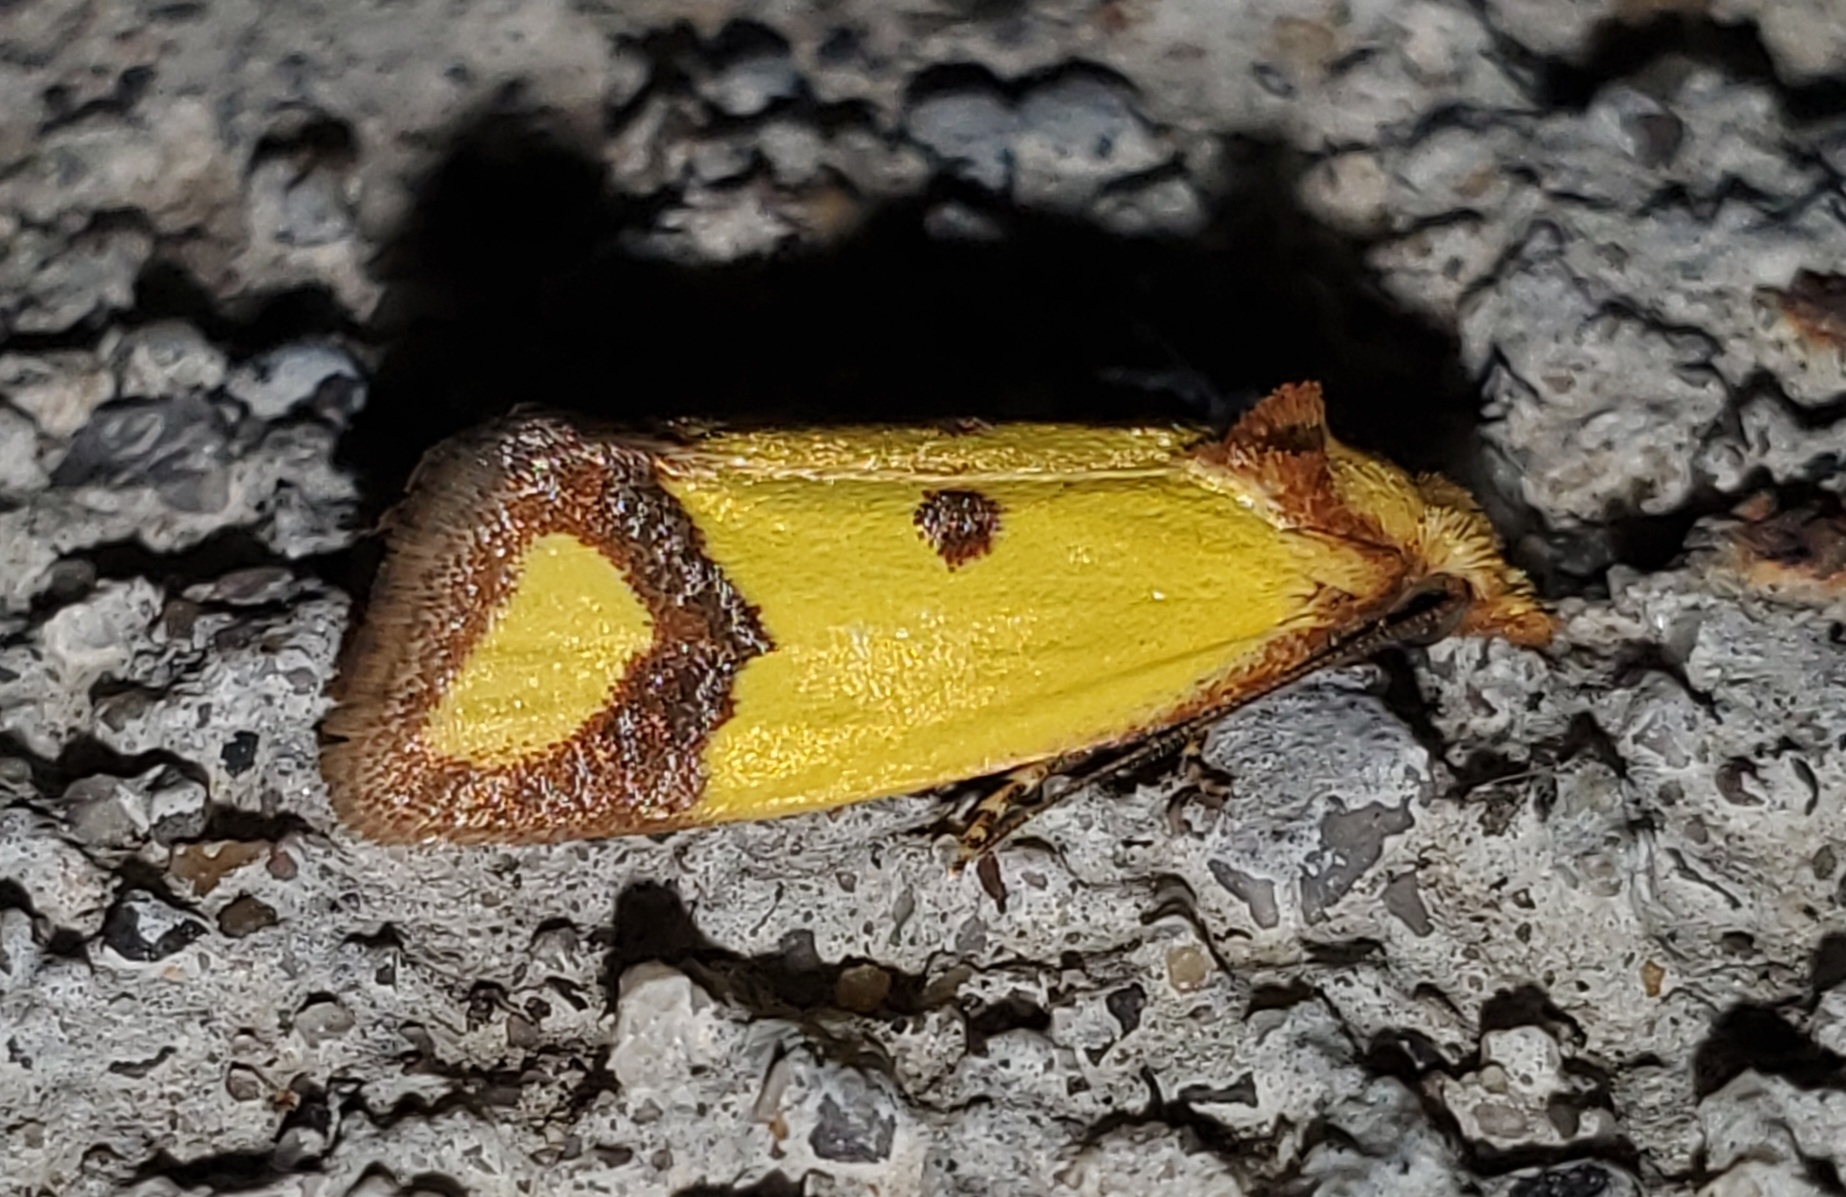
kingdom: Animalia
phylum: Arthropoda
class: Insecta
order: Lepidoptera
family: Tortricidae
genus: Agapeta
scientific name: Agapeta zoegana
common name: Sulfur knapweed root moth
